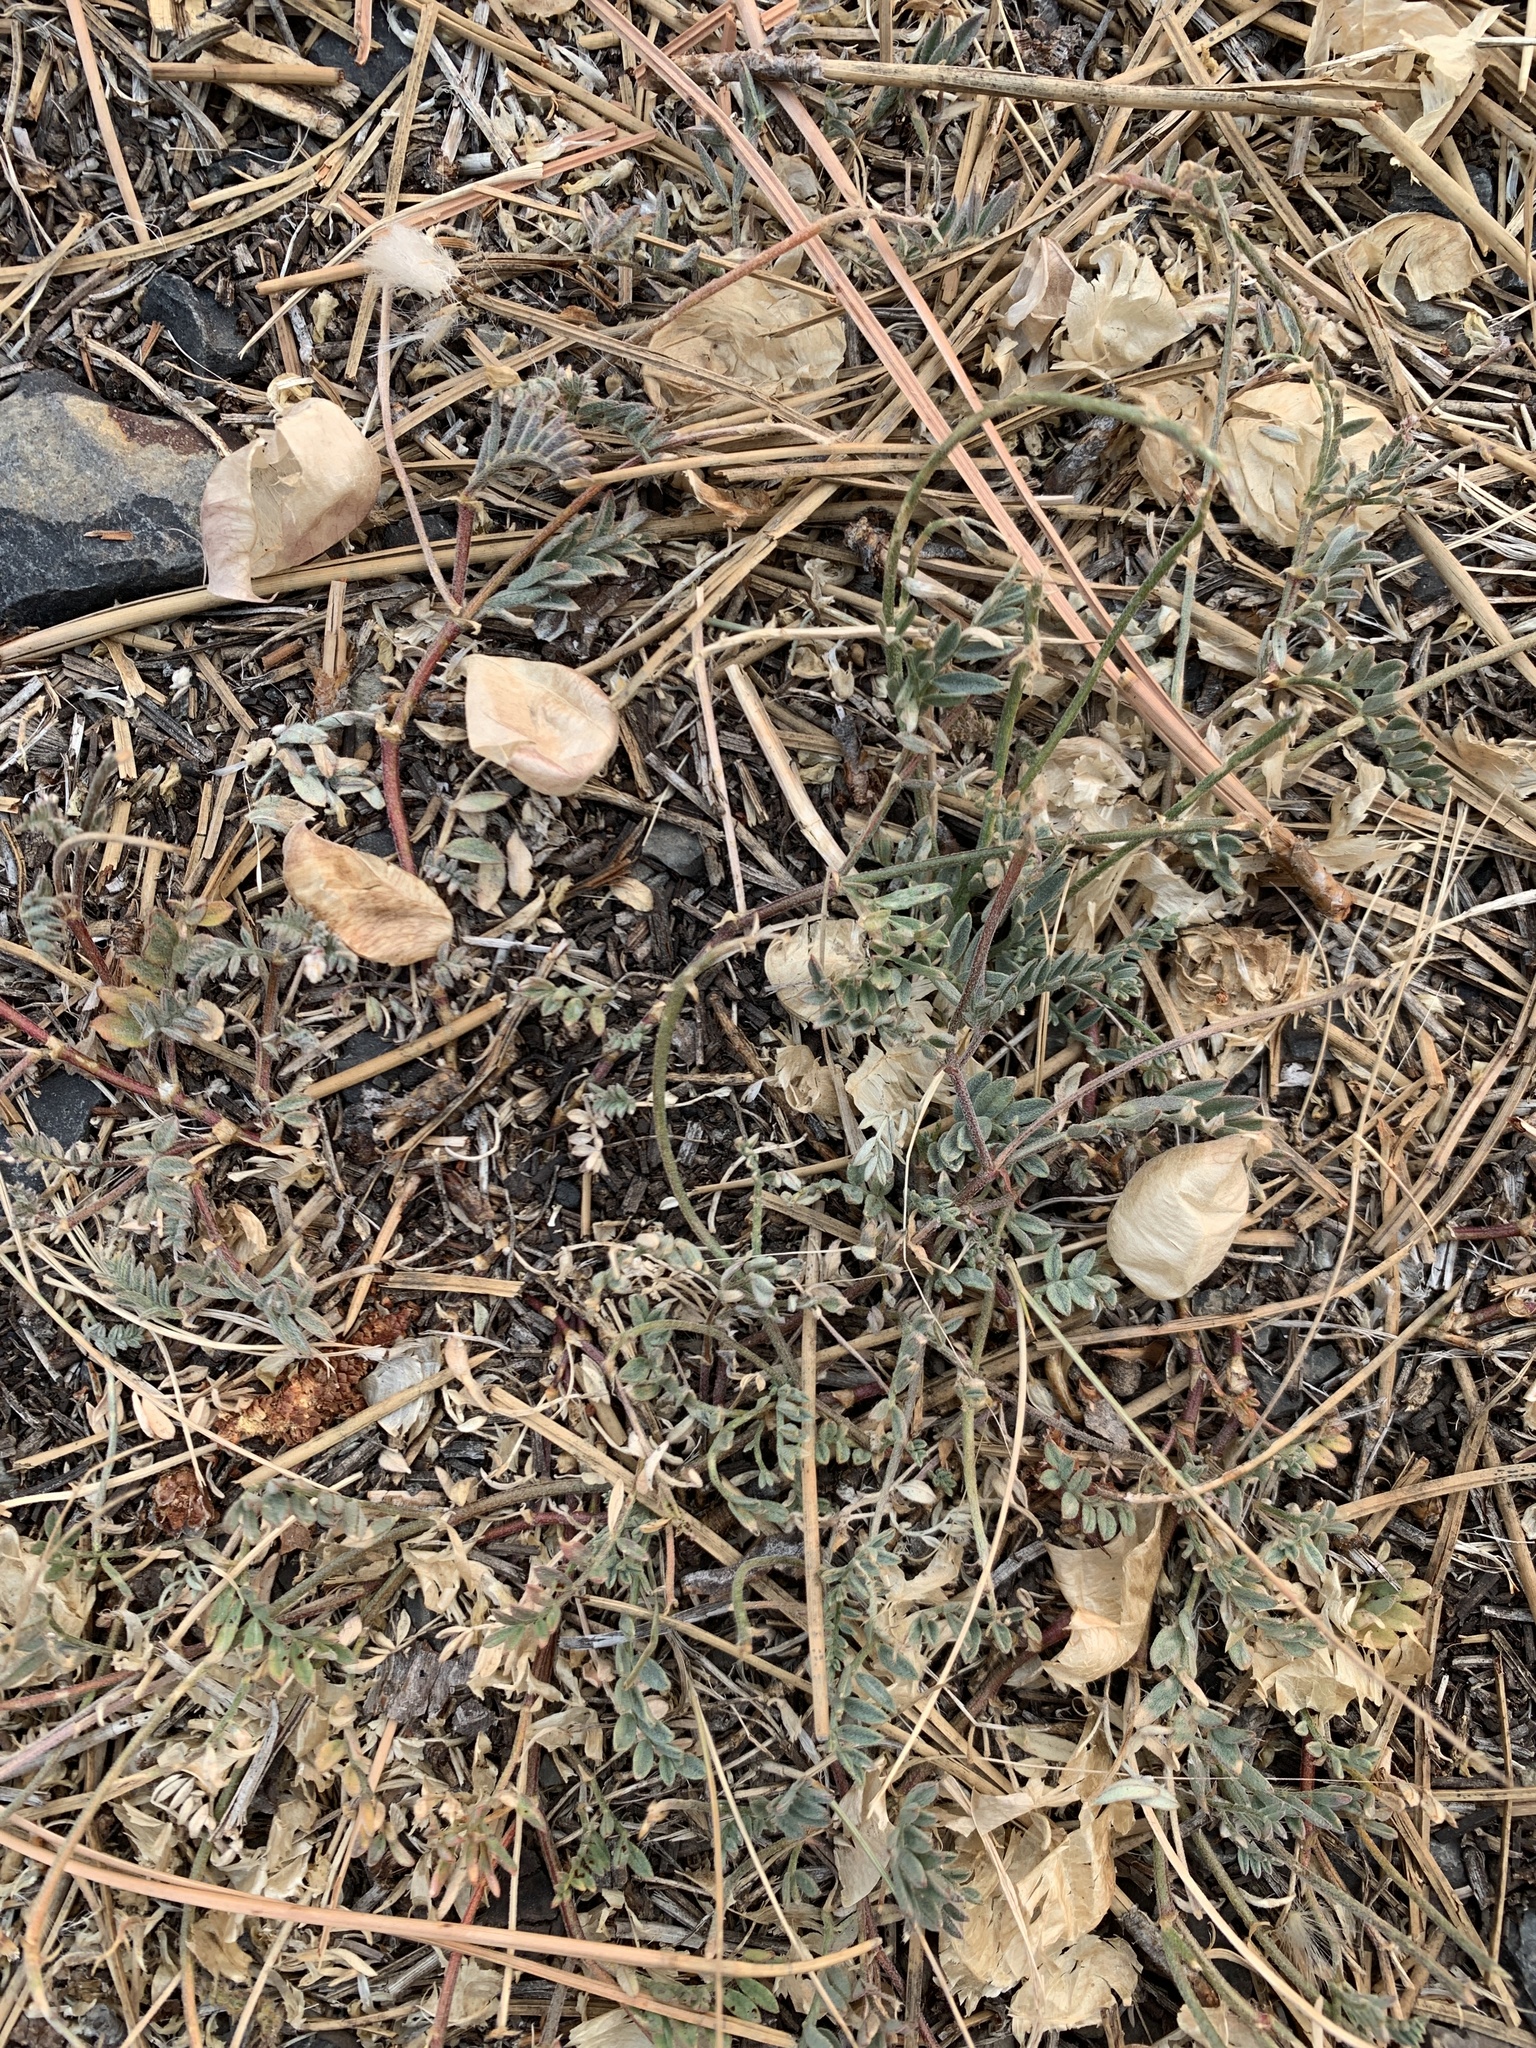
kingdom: Plantae
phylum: Tracheophyta
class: Magnoliopsida
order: Fabales
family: Fabaceae
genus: Astragalus
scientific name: Astragalus whitneyi
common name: Balloonpod milkvetch
